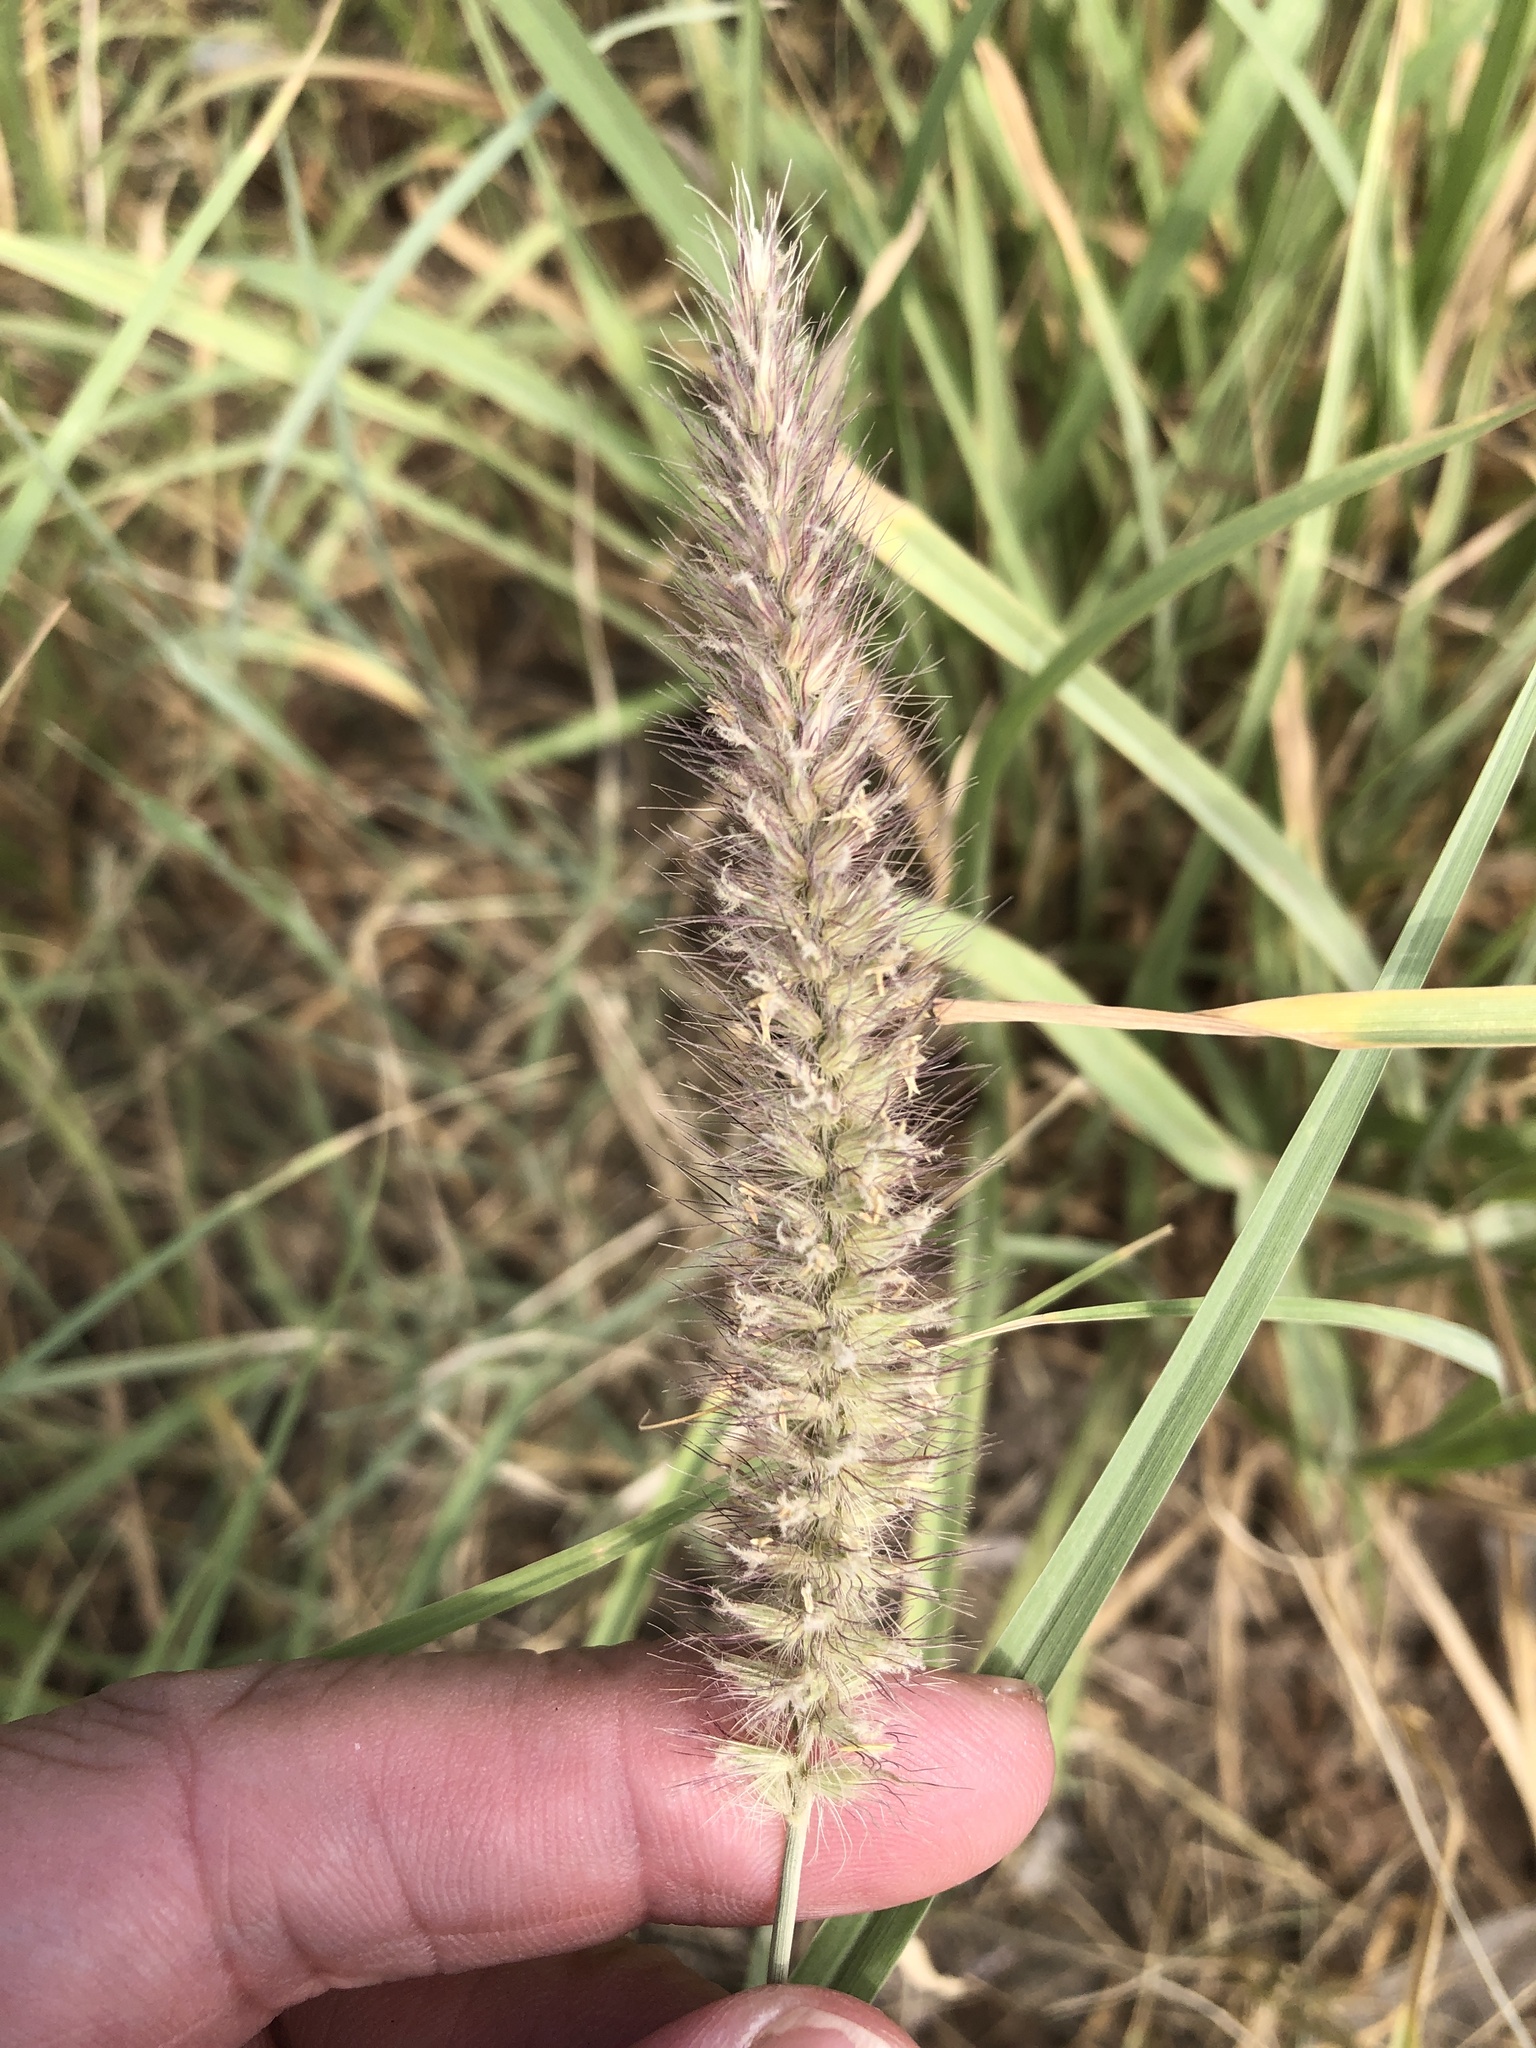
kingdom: Plantae
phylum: Tracheophyta
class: Liliopsida
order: Poales
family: Poaceae
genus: Cenchrus
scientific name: Cenchrus ciliaris
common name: Buffelgrass
